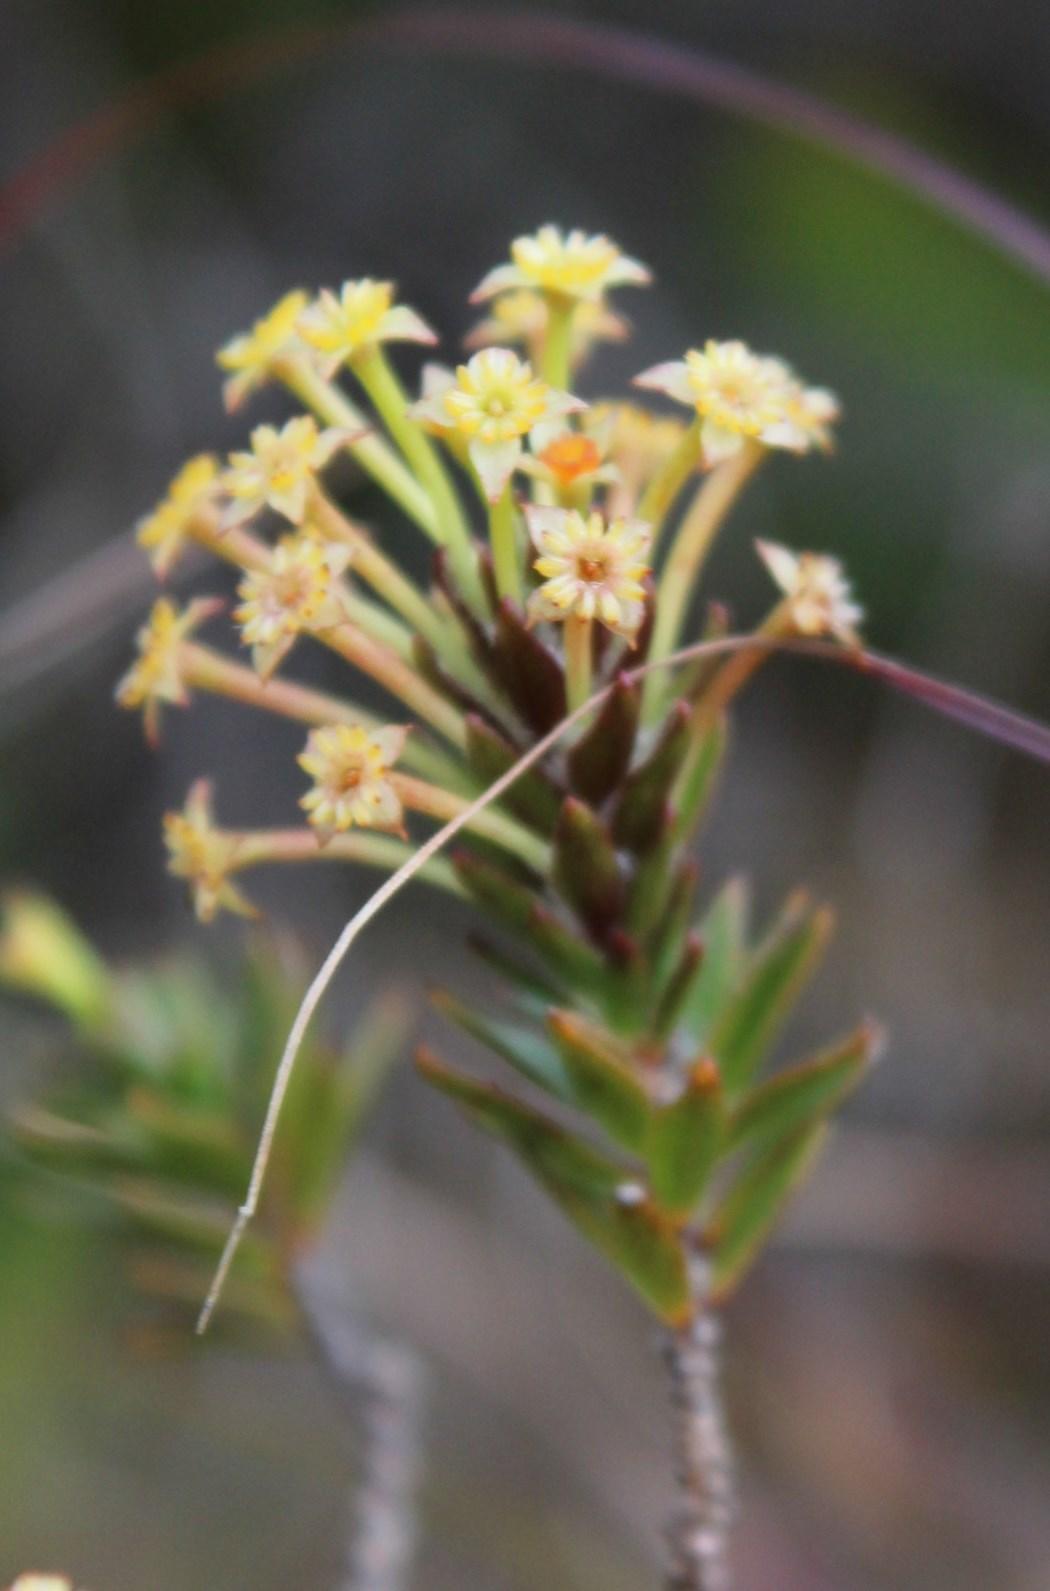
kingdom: Plantae
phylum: Tracheophyta
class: Magnoliopsida
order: Malvales
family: Thymelaeaceae
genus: Struthiola
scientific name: Struthiola mundtii
